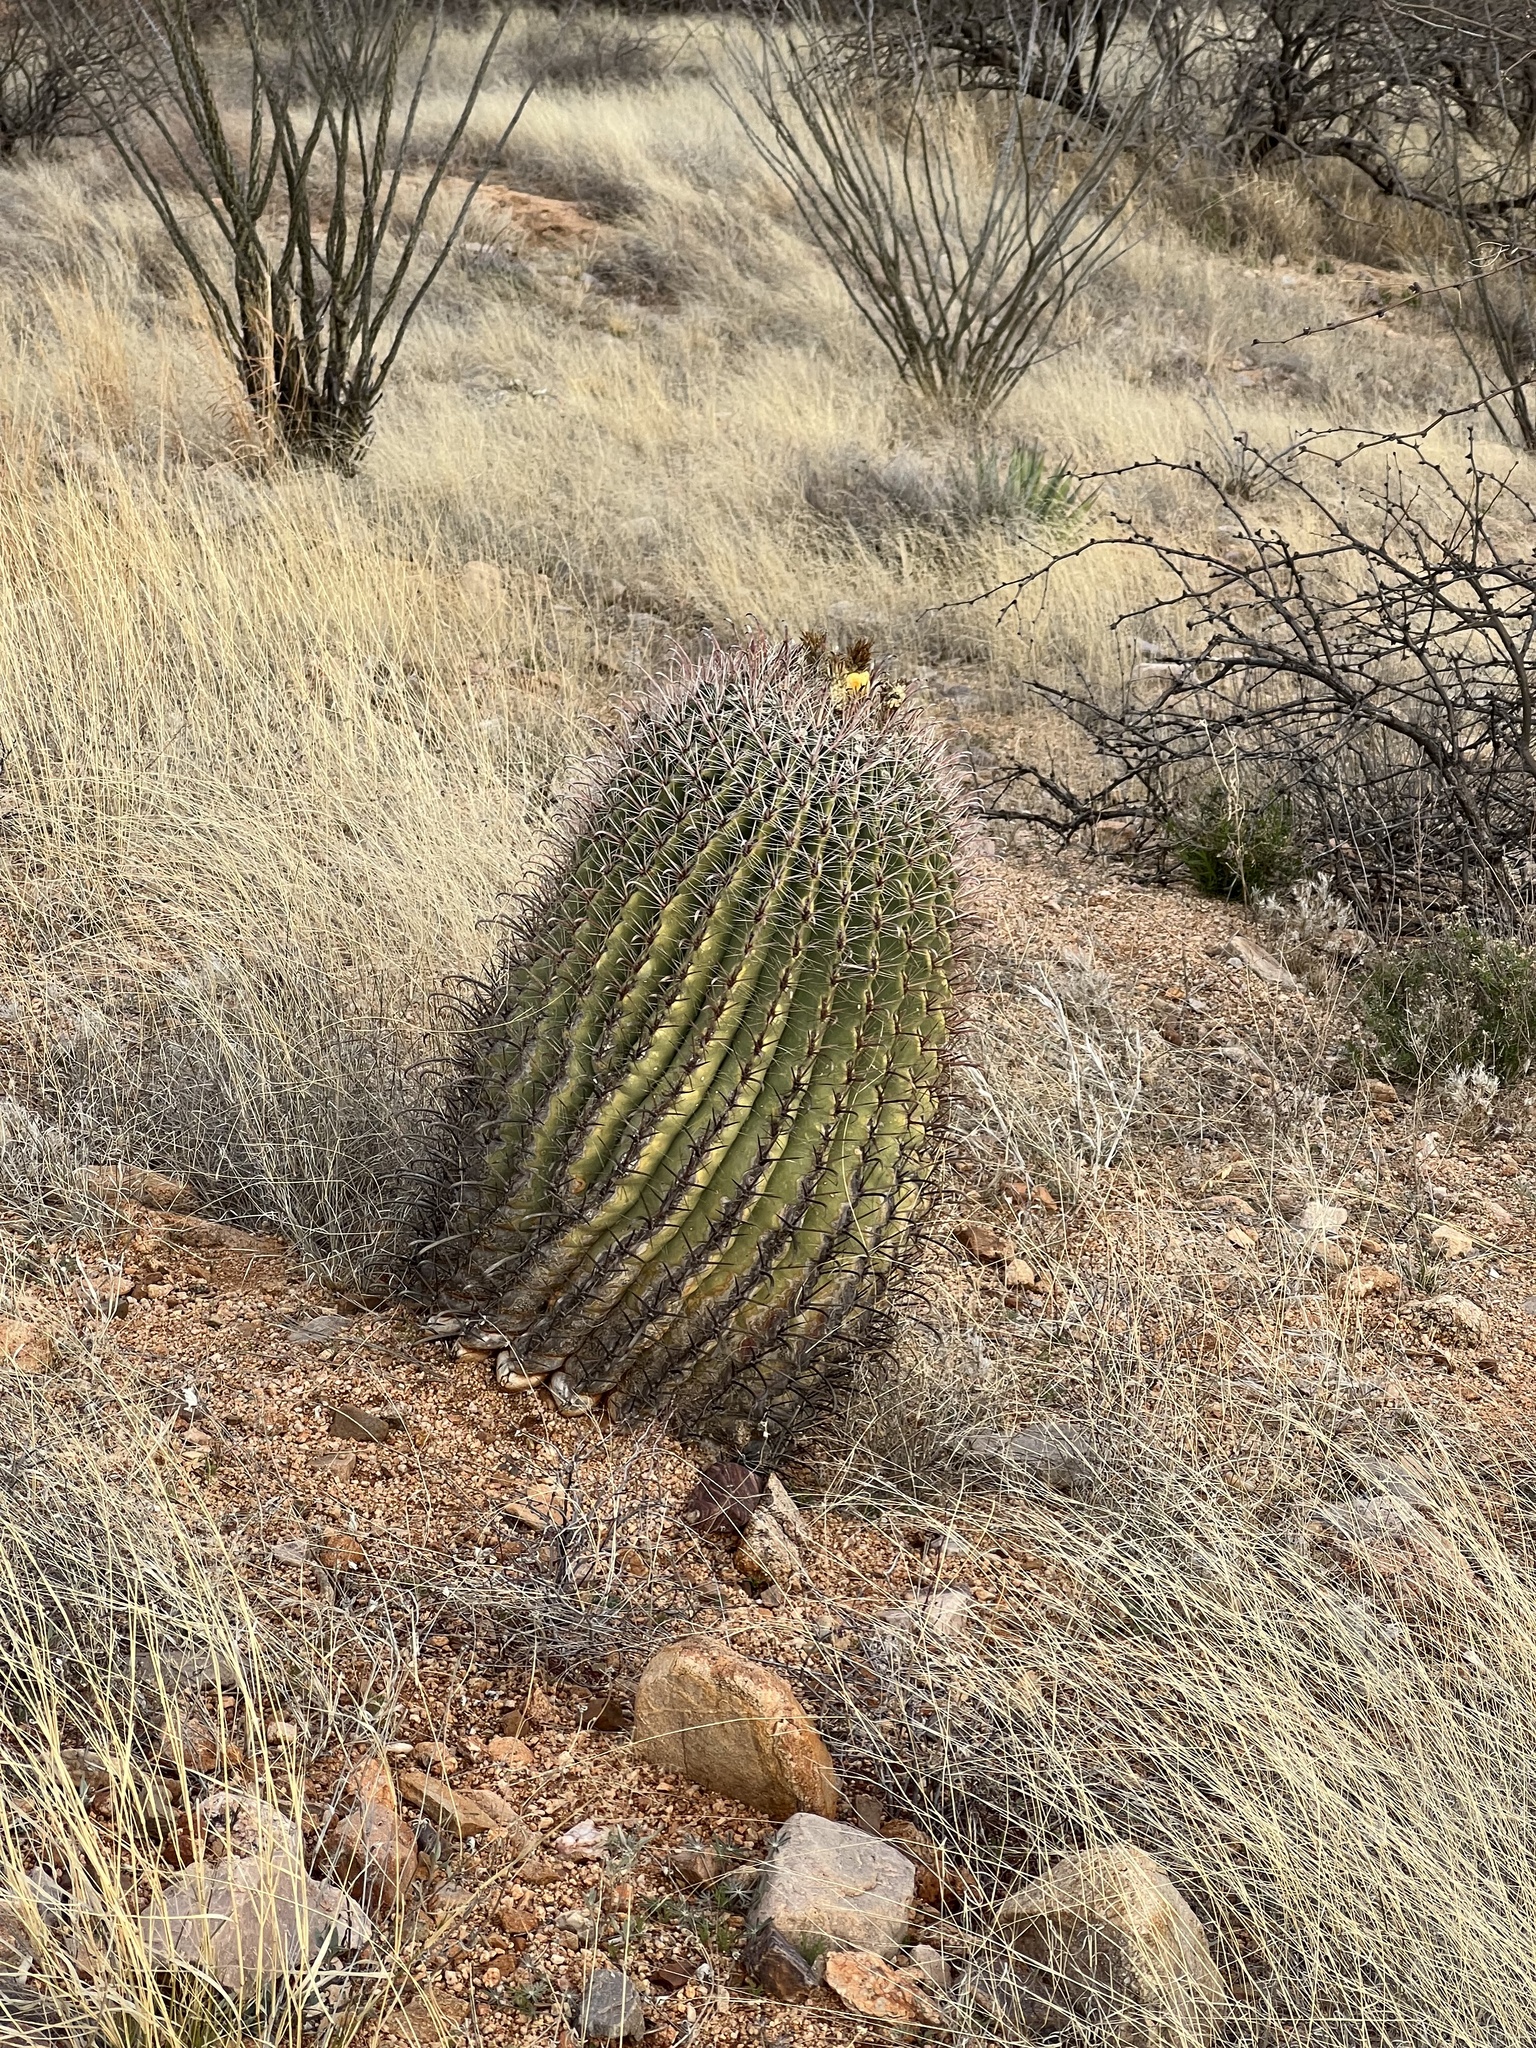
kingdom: Plantae
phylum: Tracheophyta
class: Magnoliopsida
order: Caryophyllales
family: Cactaceae
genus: Ferocactus
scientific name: Ferocactus wislizeni
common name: Candy barrel cactus
